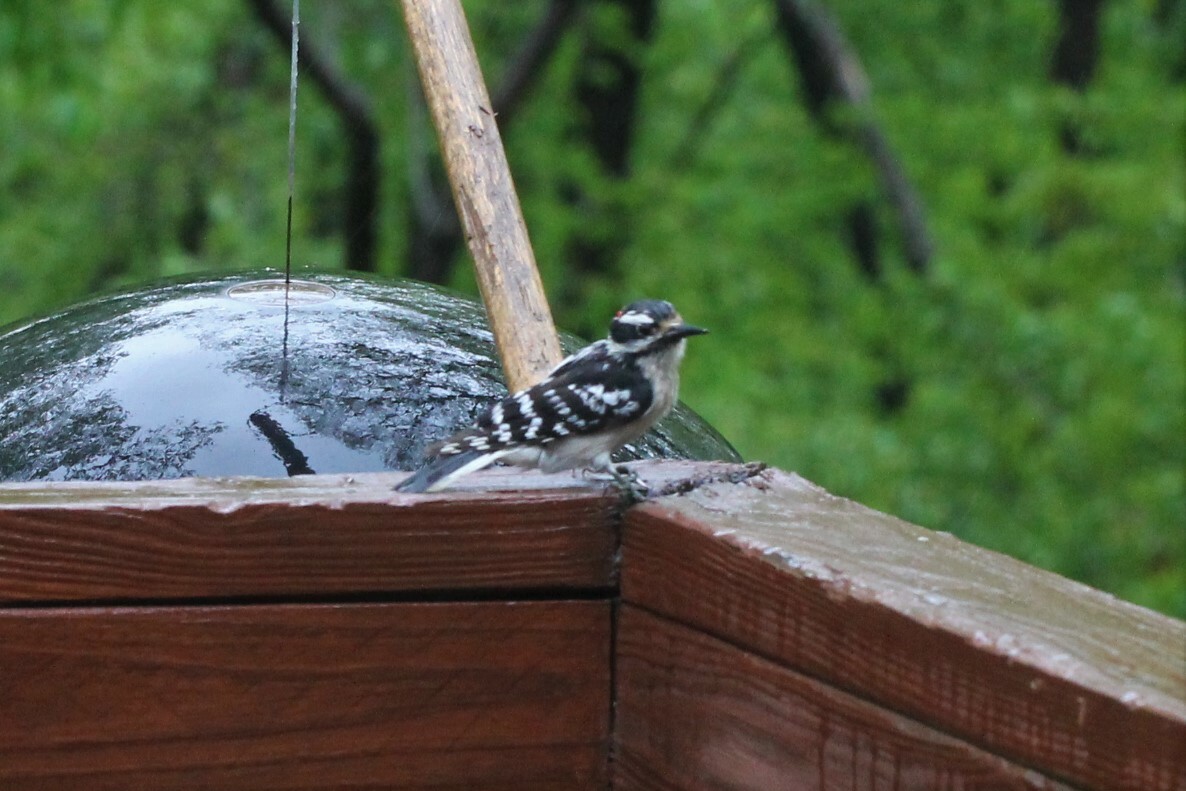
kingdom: Animalia
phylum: Chordata
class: Aves
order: Piciformes
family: Picidae
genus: Dryobates
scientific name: Dryobates pubescens
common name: Downy woodpecker
